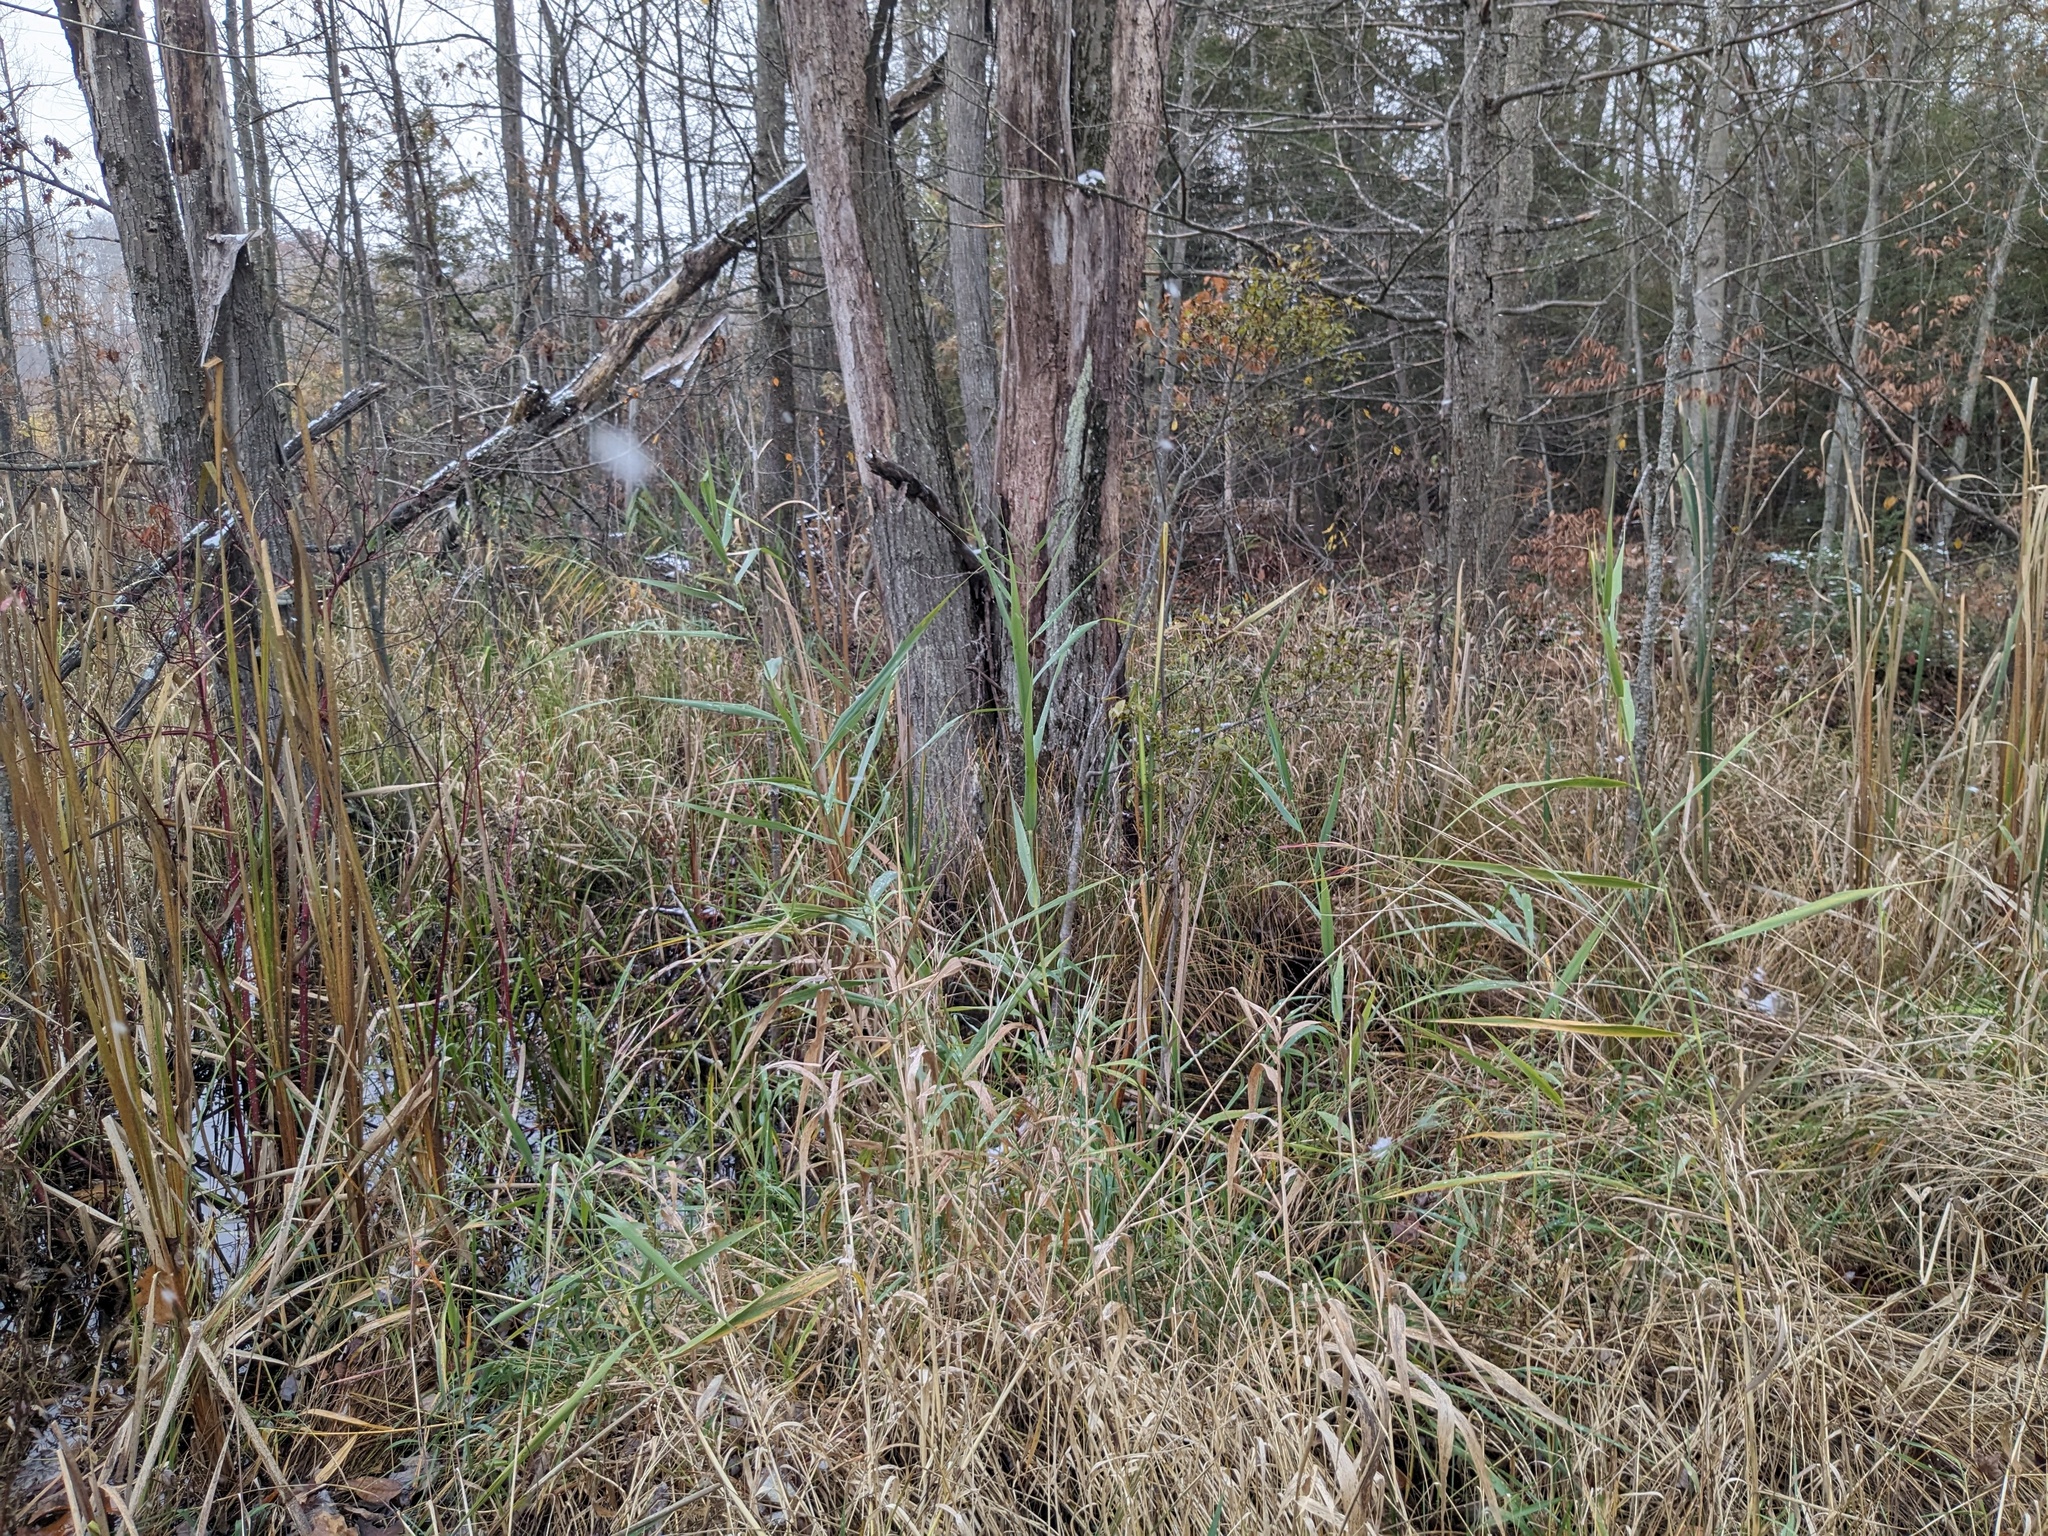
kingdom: Plantae
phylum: Tracheophyta
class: Liliopsida
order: Poales
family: Poaceae
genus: Phragmites
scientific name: Phragmites australis
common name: Common reed
